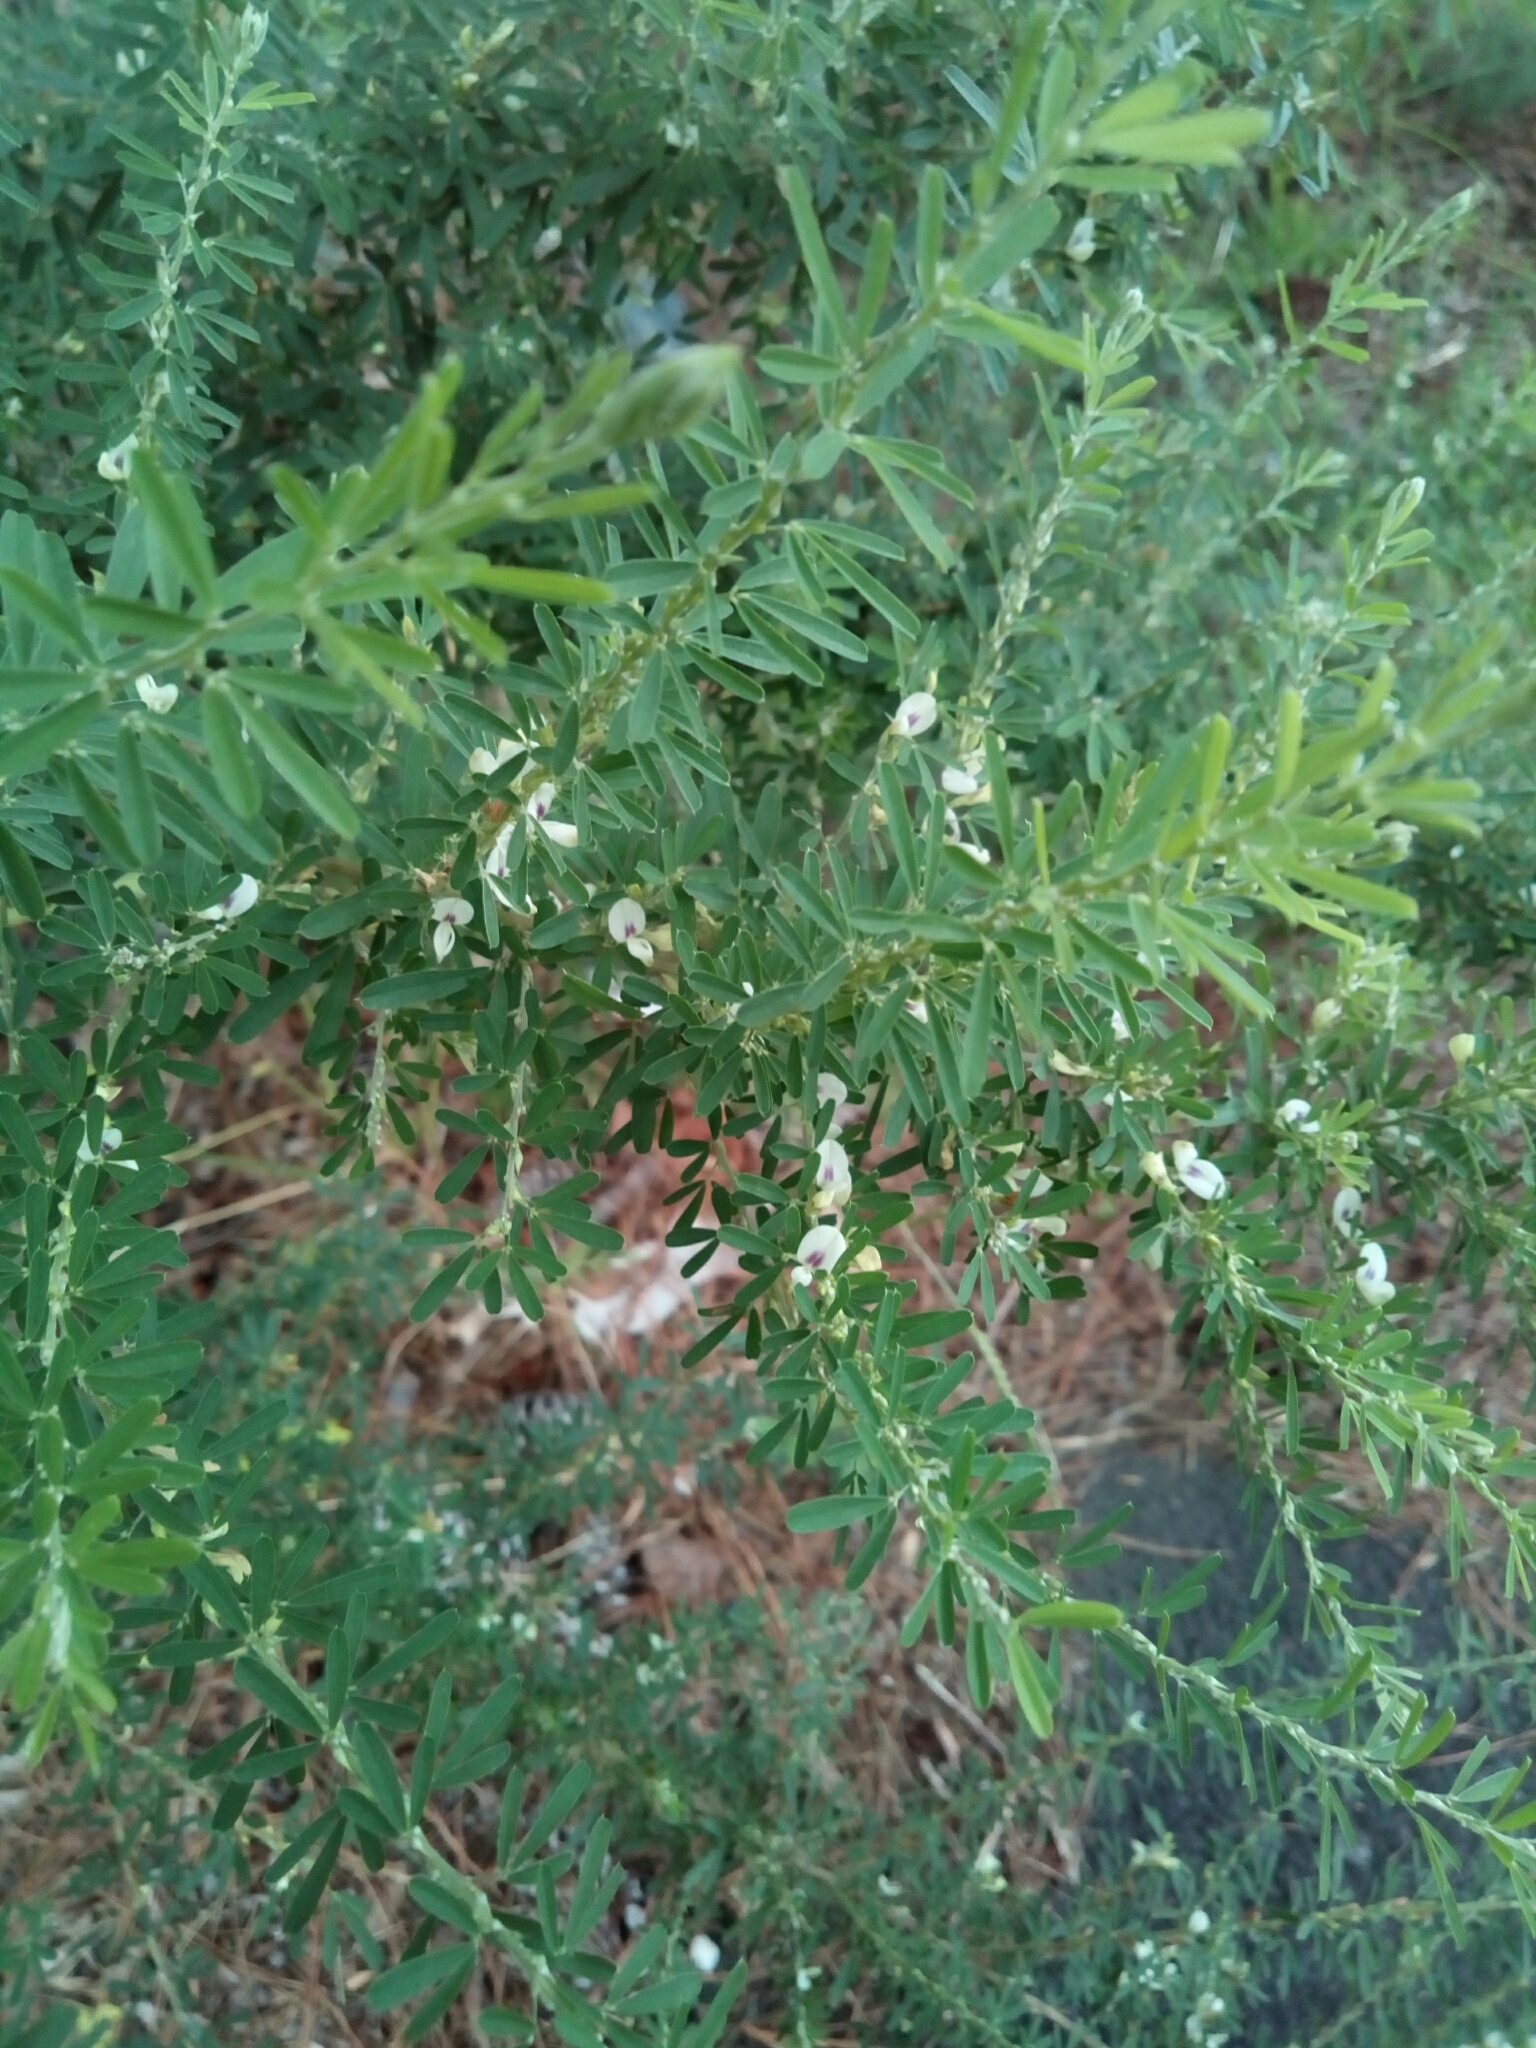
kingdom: Plantae
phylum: Tracheophyta
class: Magnoliopsida
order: Fabales
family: Fabaceae
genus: Lespedeza
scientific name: Lespedeza cuneata
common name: Chinese bush-clover
